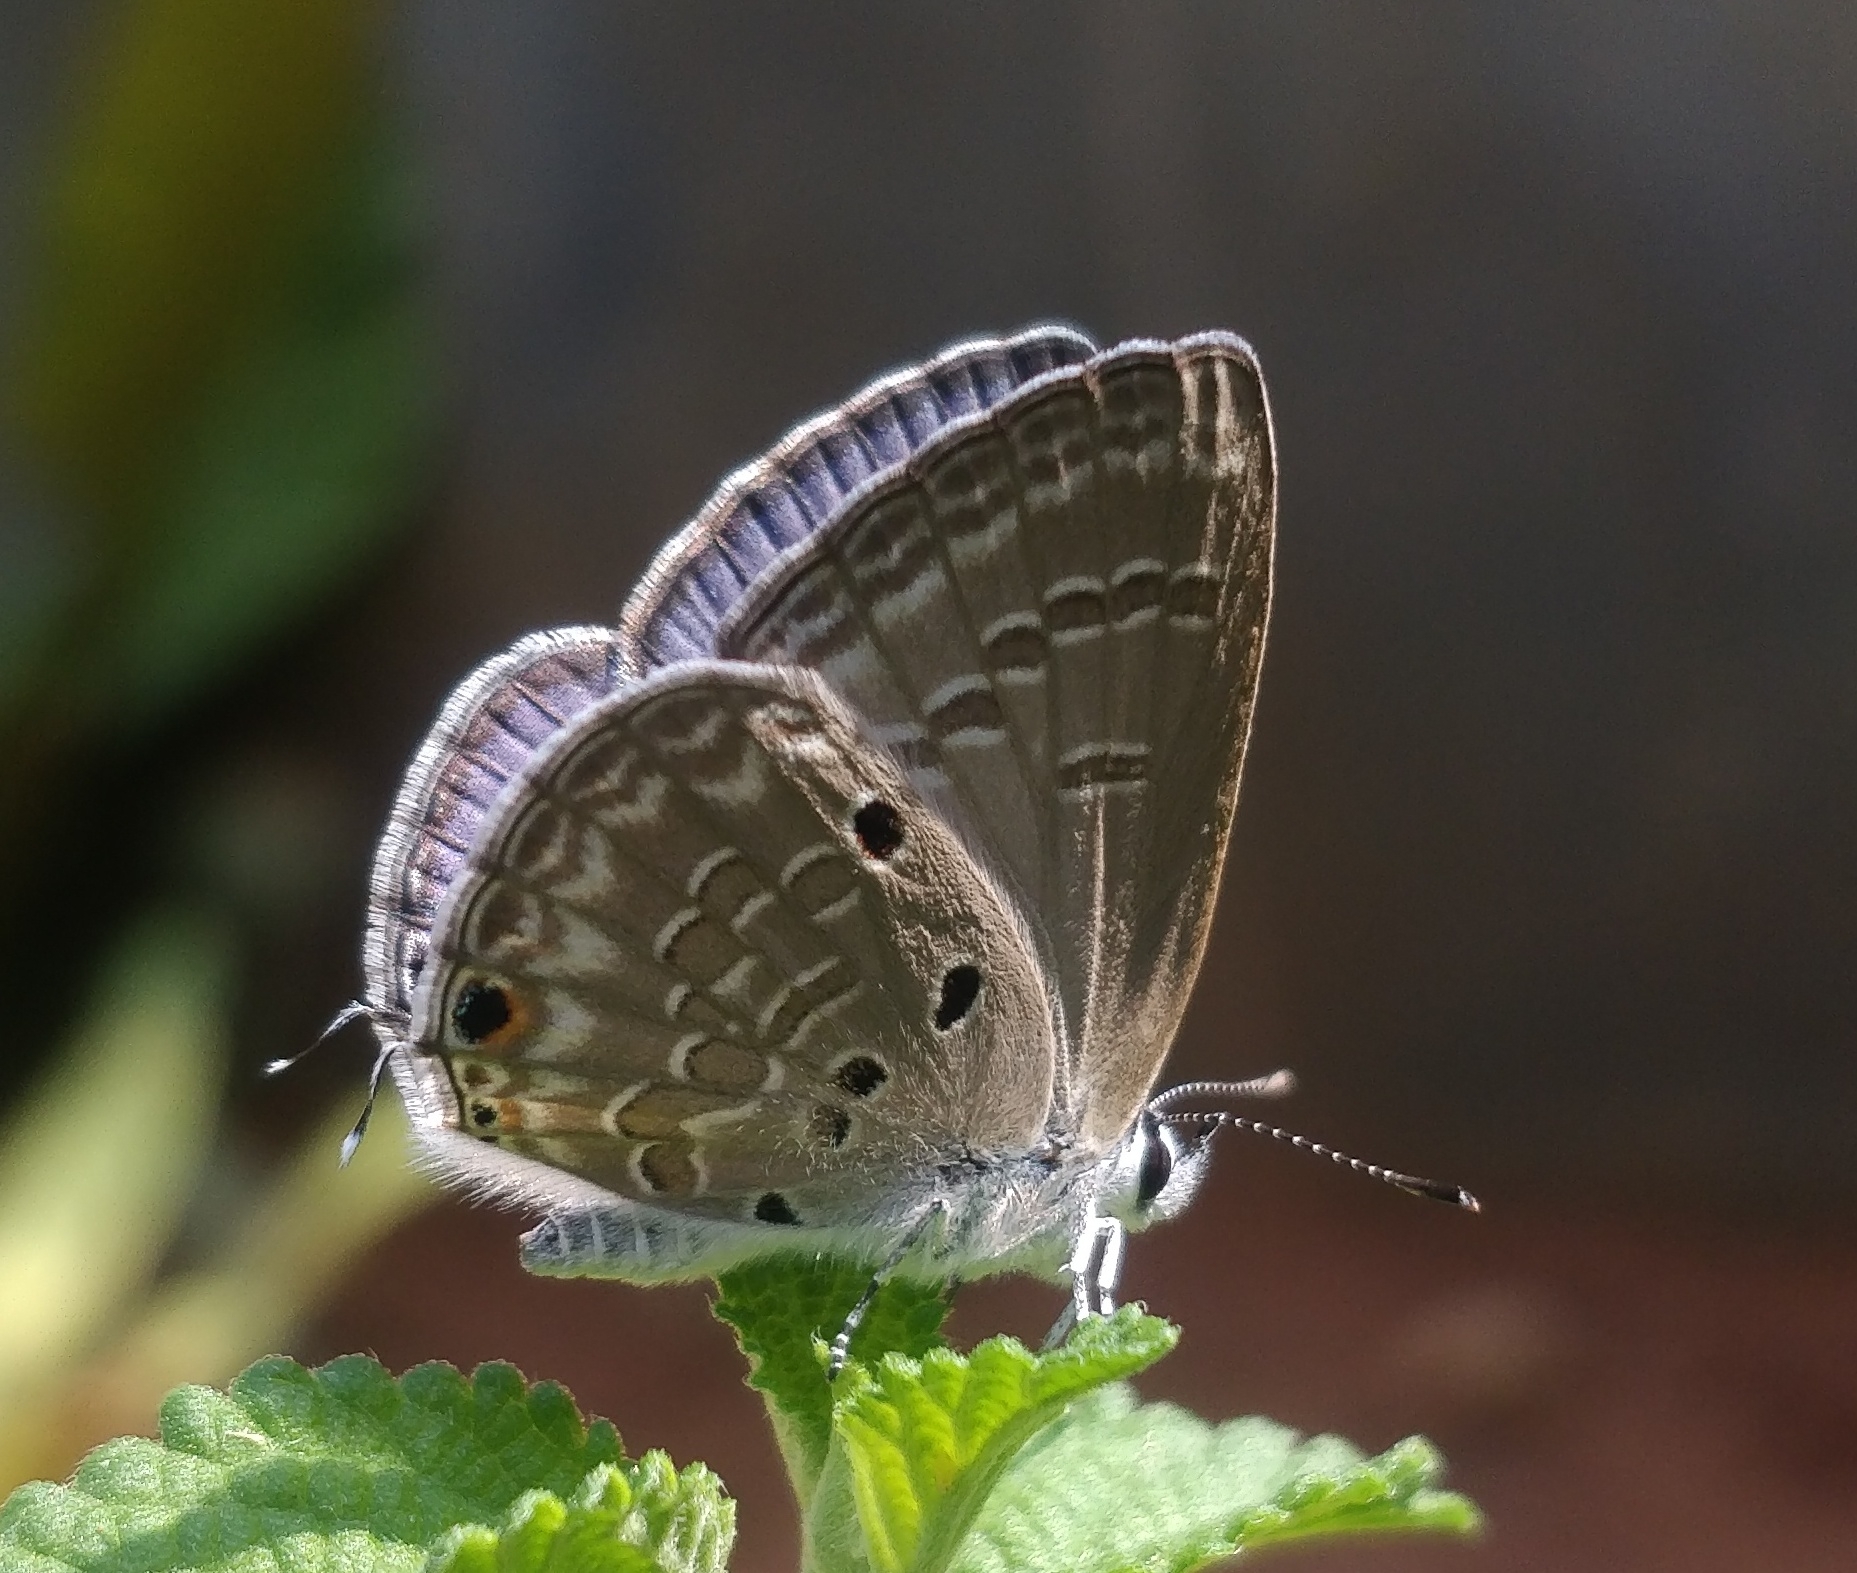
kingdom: Animalia
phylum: Arthropoda
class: Insecta
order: Lepidoptera
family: Lycaenidae
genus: Luthrodes
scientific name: Luthrodes pandava
